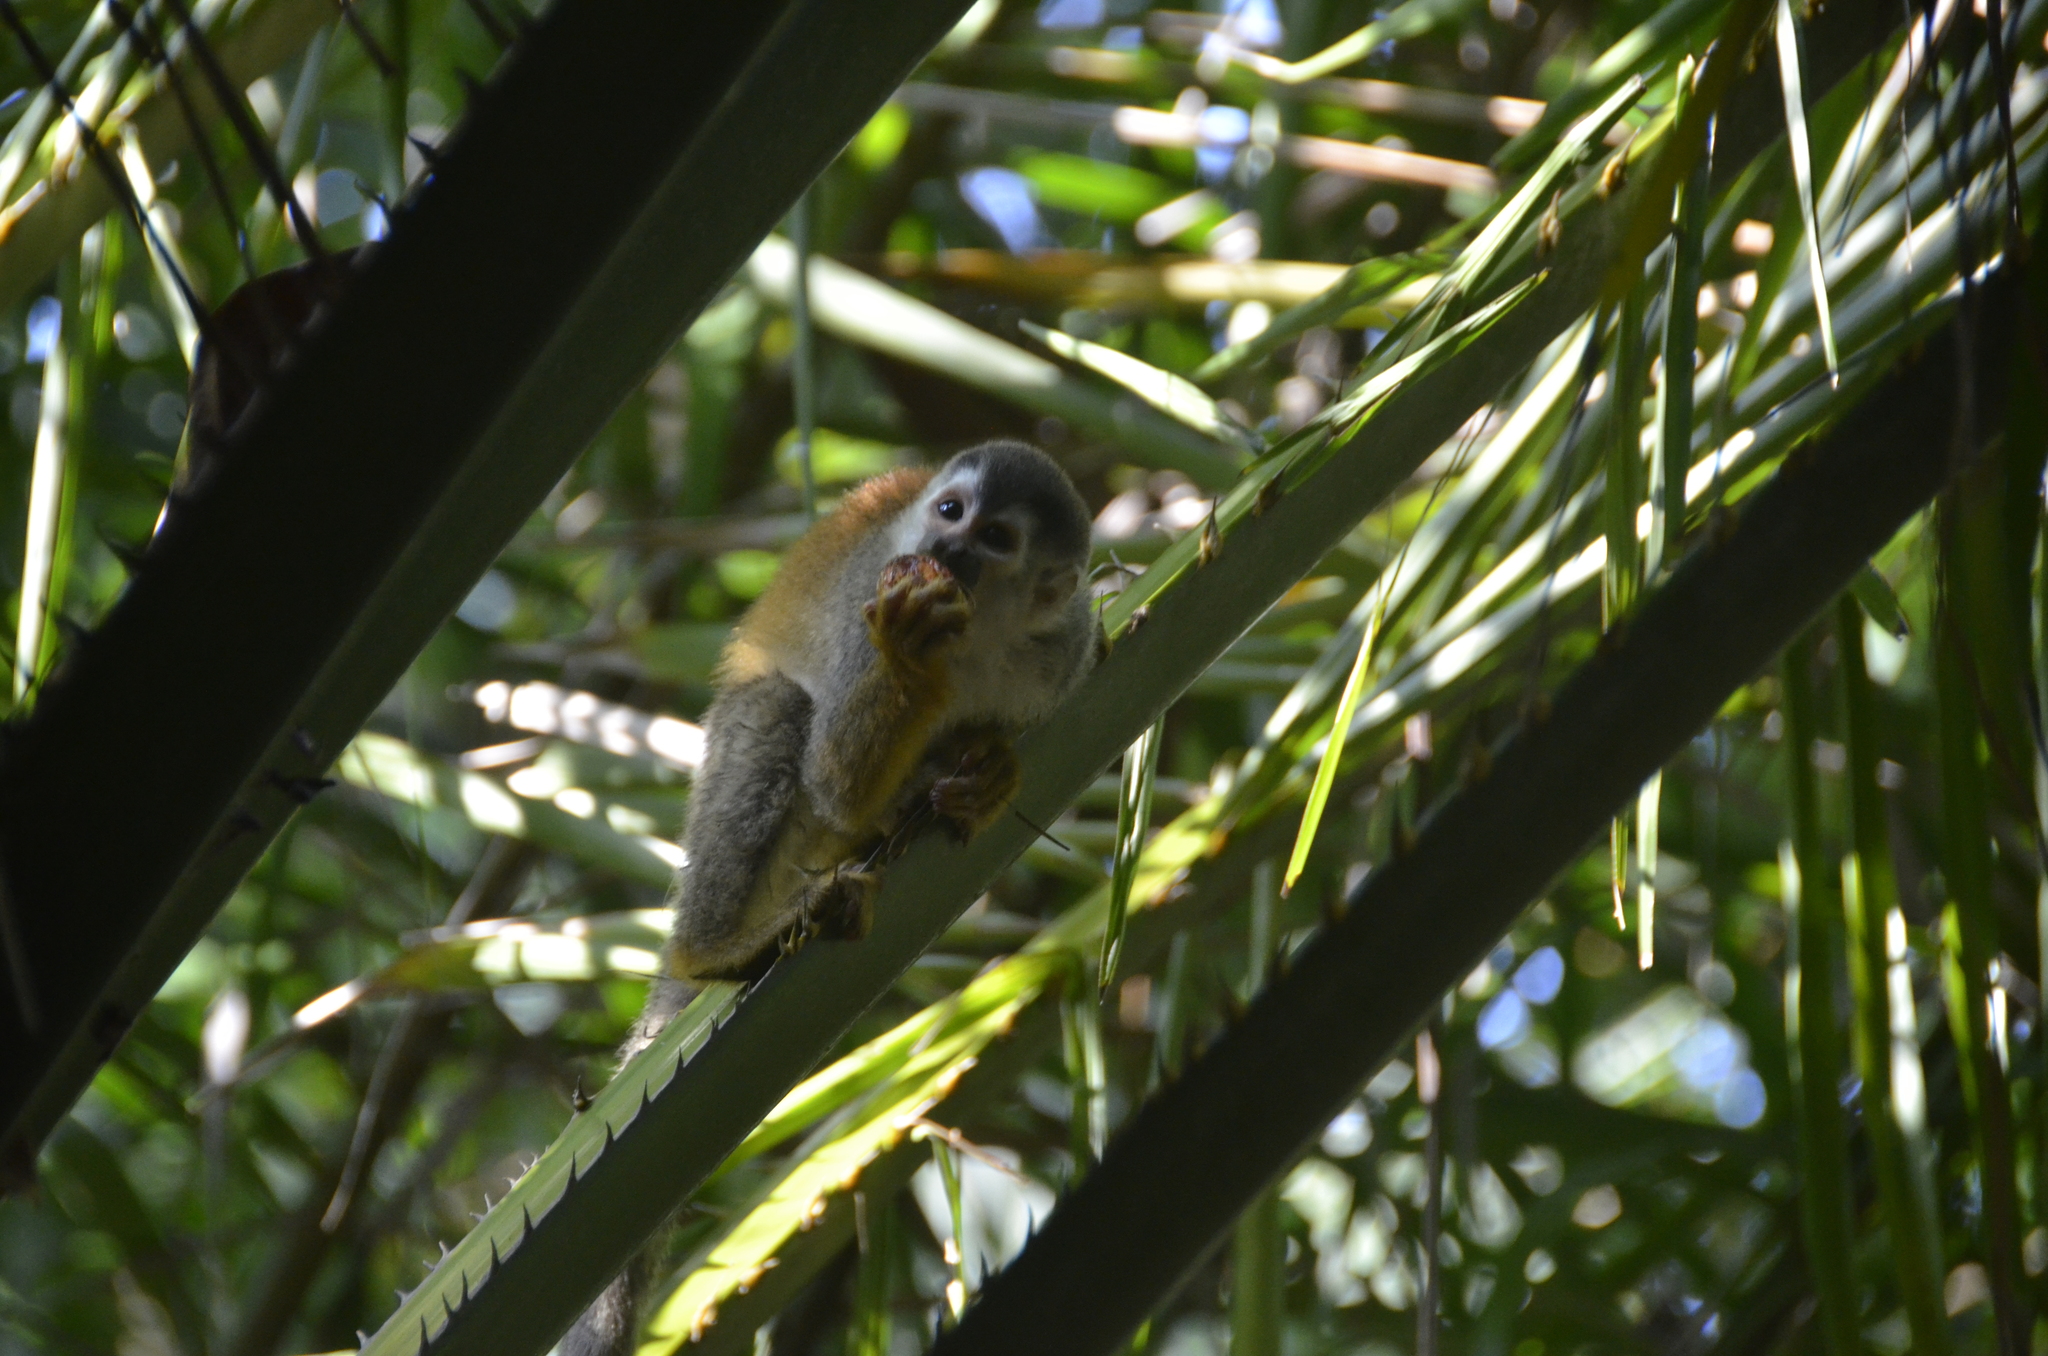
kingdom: Animalia
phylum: Chordata
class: Mammalia
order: Primates
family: Cebidae
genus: Saimiri
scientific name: Saimiri oerstedii
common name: Central american squirrel monkey
